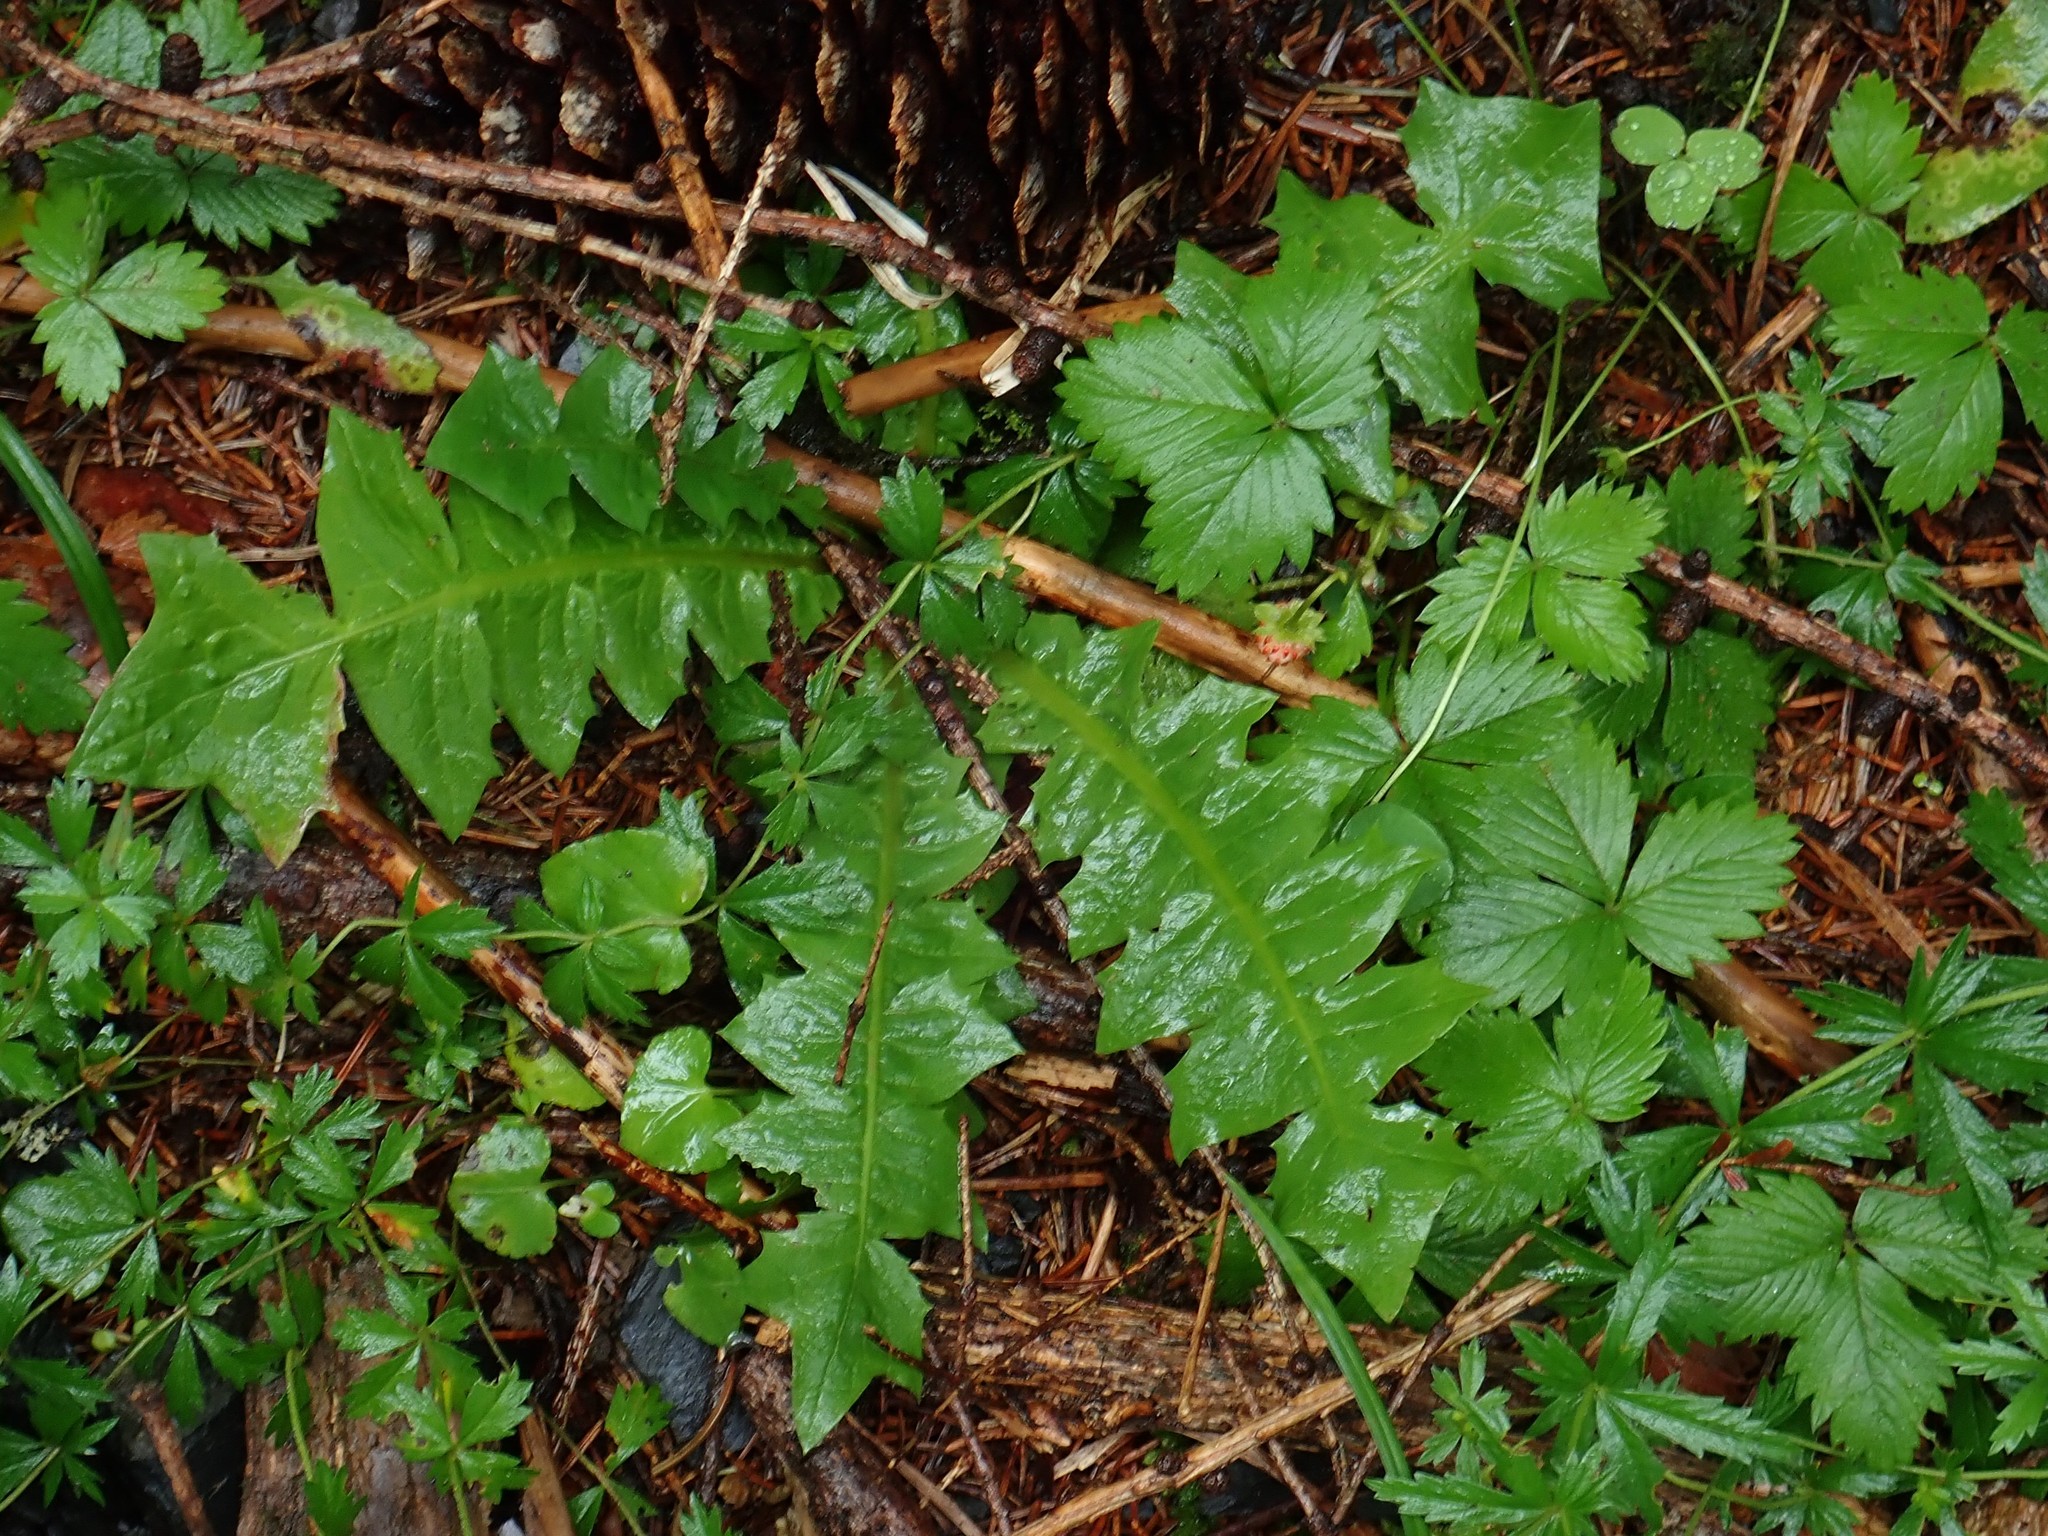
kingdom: Plantae
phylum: Tracheophyta
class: Magnoliopsida
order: Asterales
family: Asteraceae
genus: Aposeris
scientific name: Aposeris foetida
